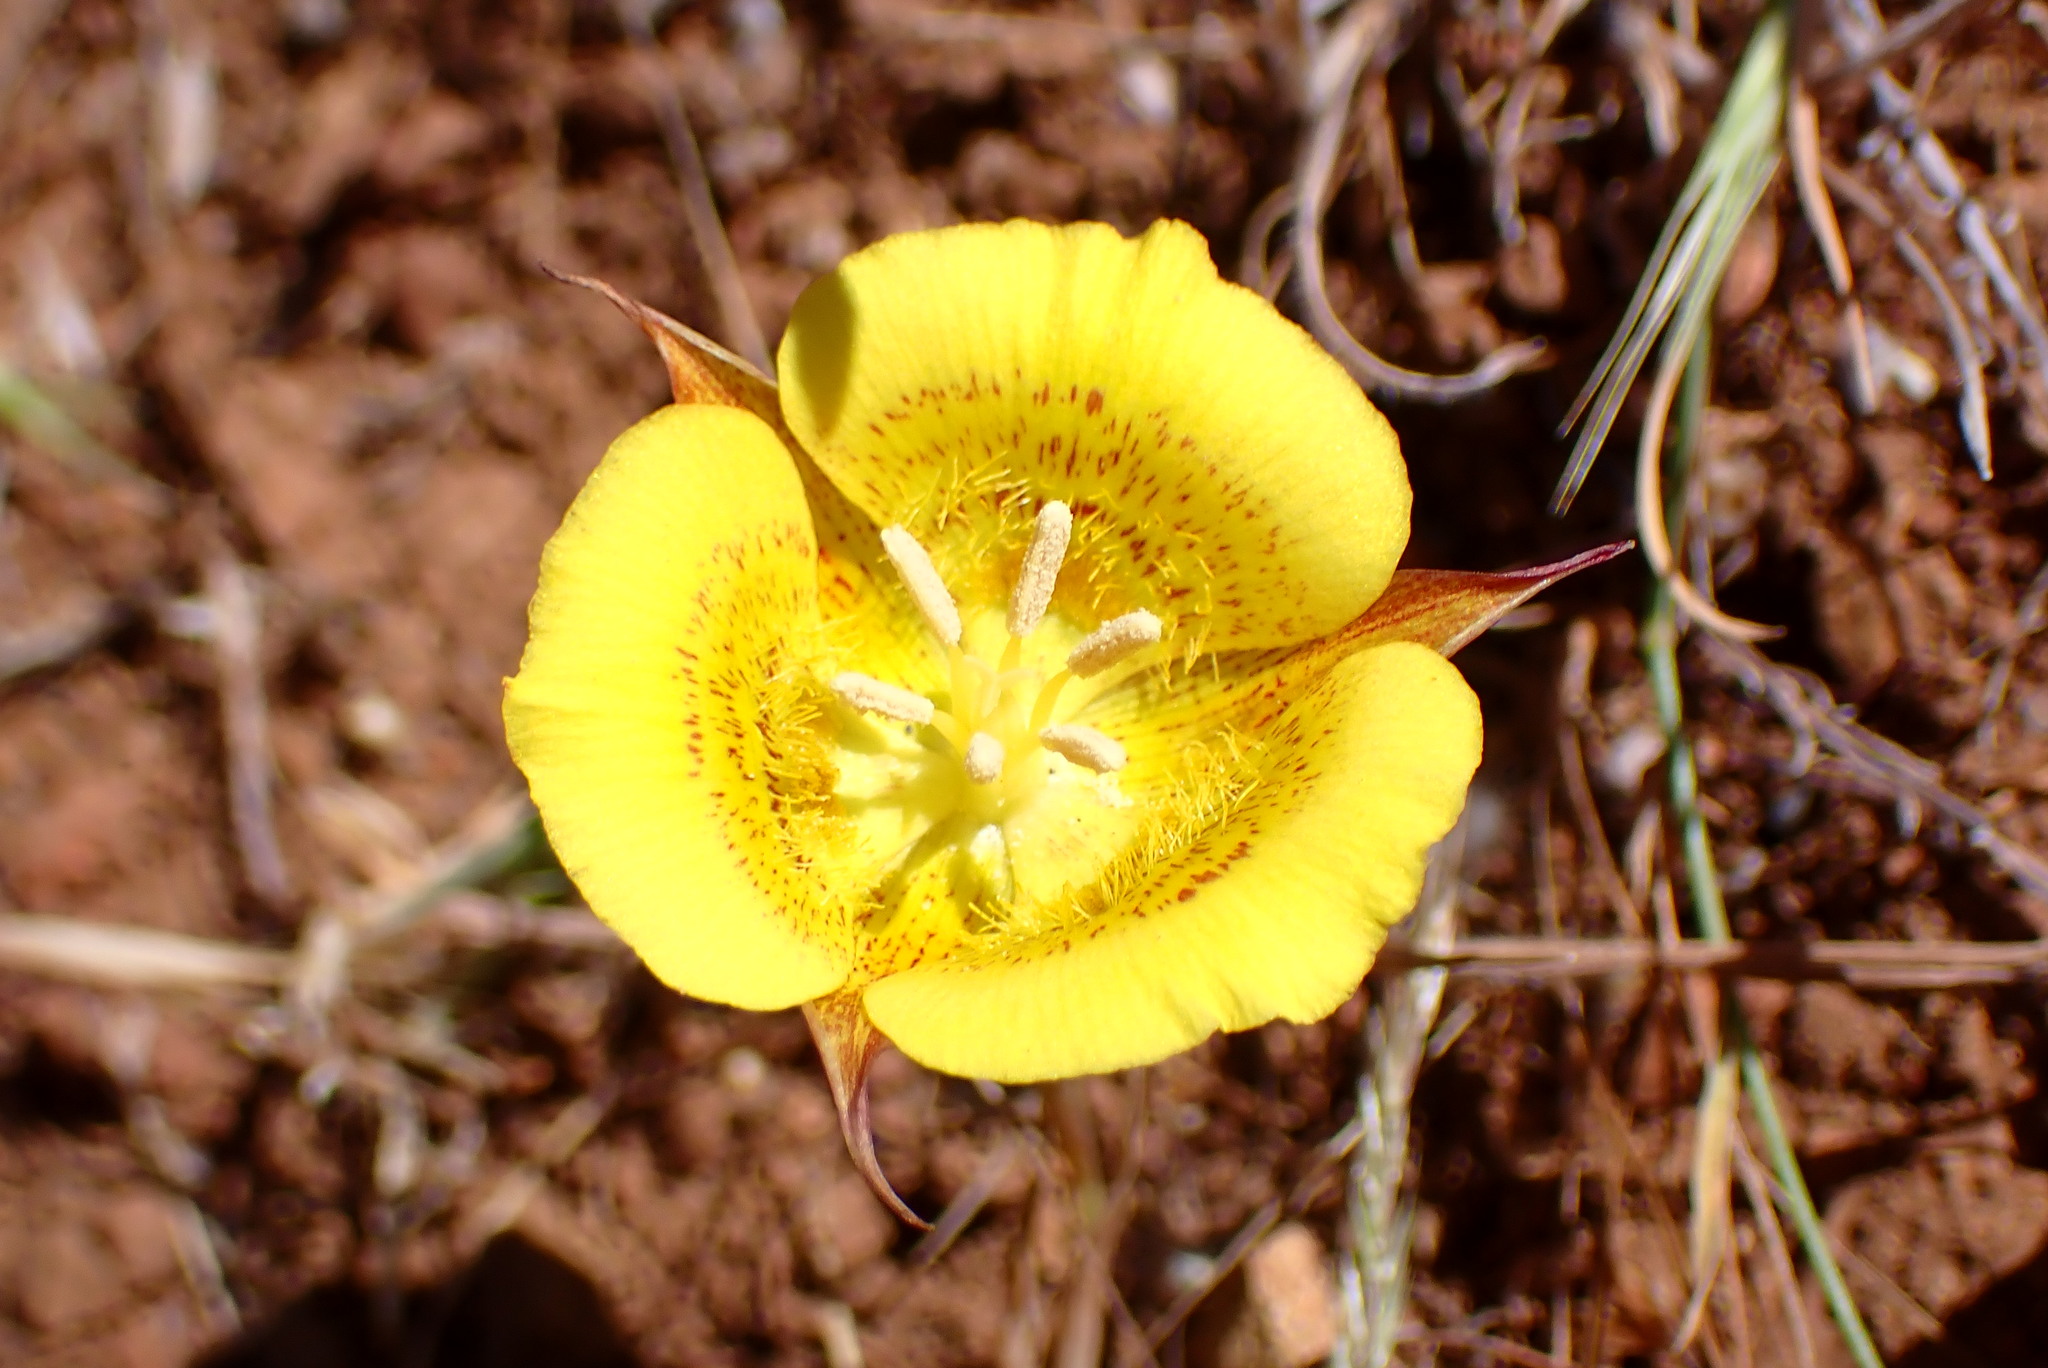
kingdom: Plantae
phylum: Tracheophyta
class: Liliopsida
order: Liliales
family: Liliaceae
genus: Calochortus
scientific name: Calochortus luteus
